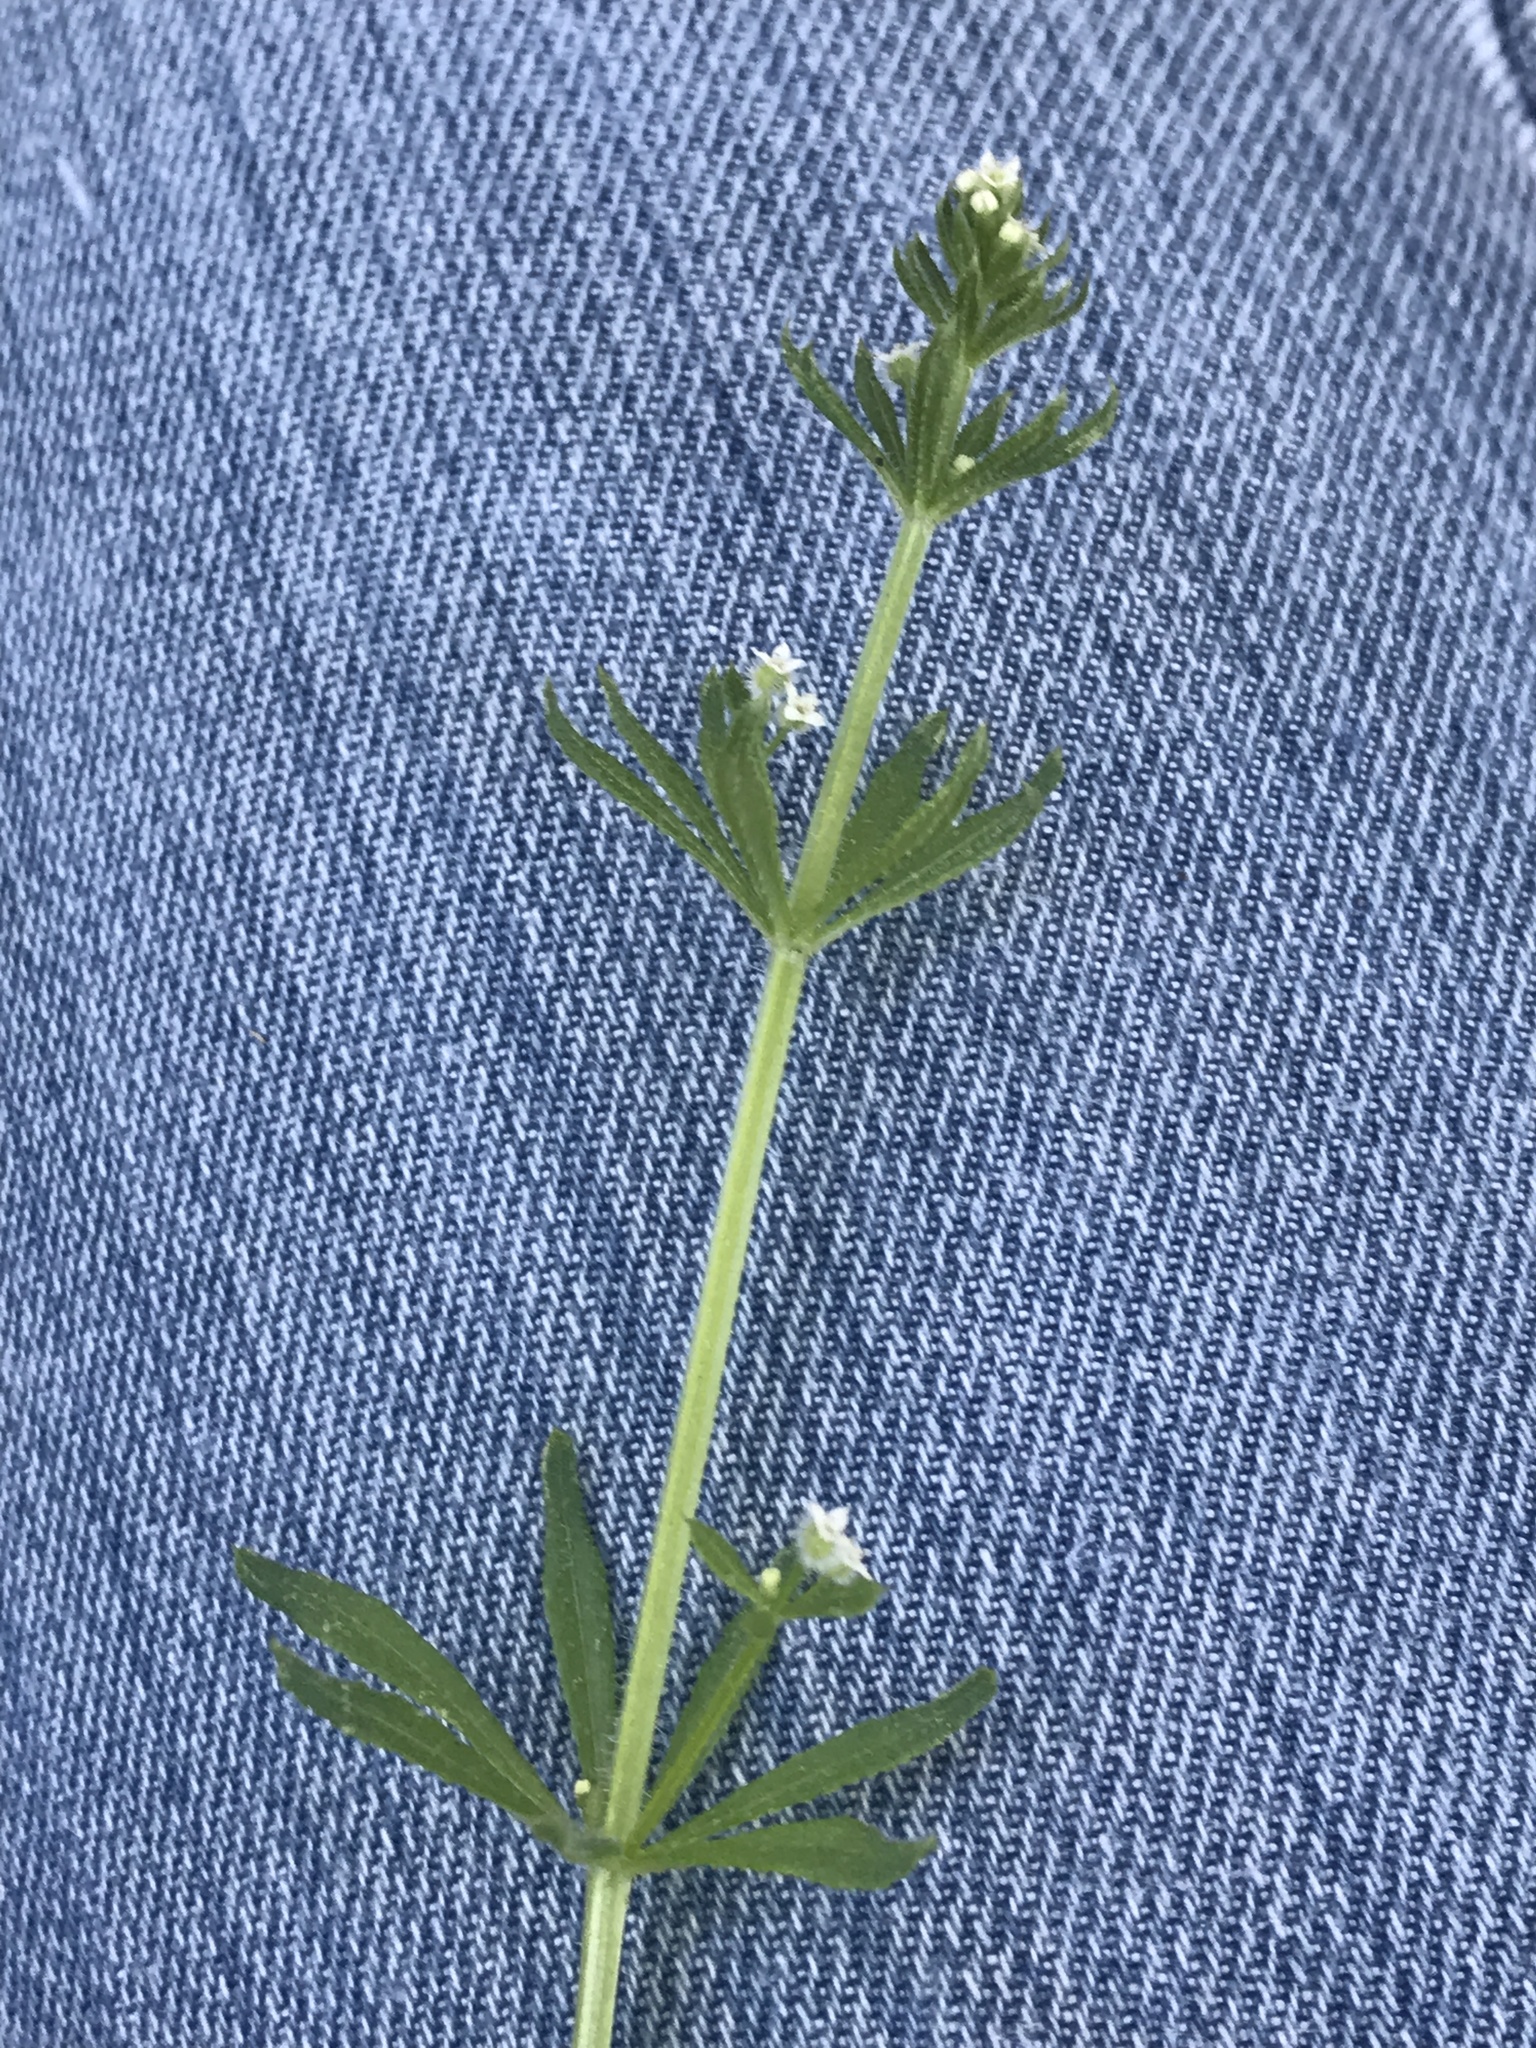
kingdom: Plantae
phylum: Tracheophyta
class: Magnoliopsida
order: Gentianales
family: Rubiaceae
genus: Galium
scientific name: Galium aparine
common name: Cleavers
